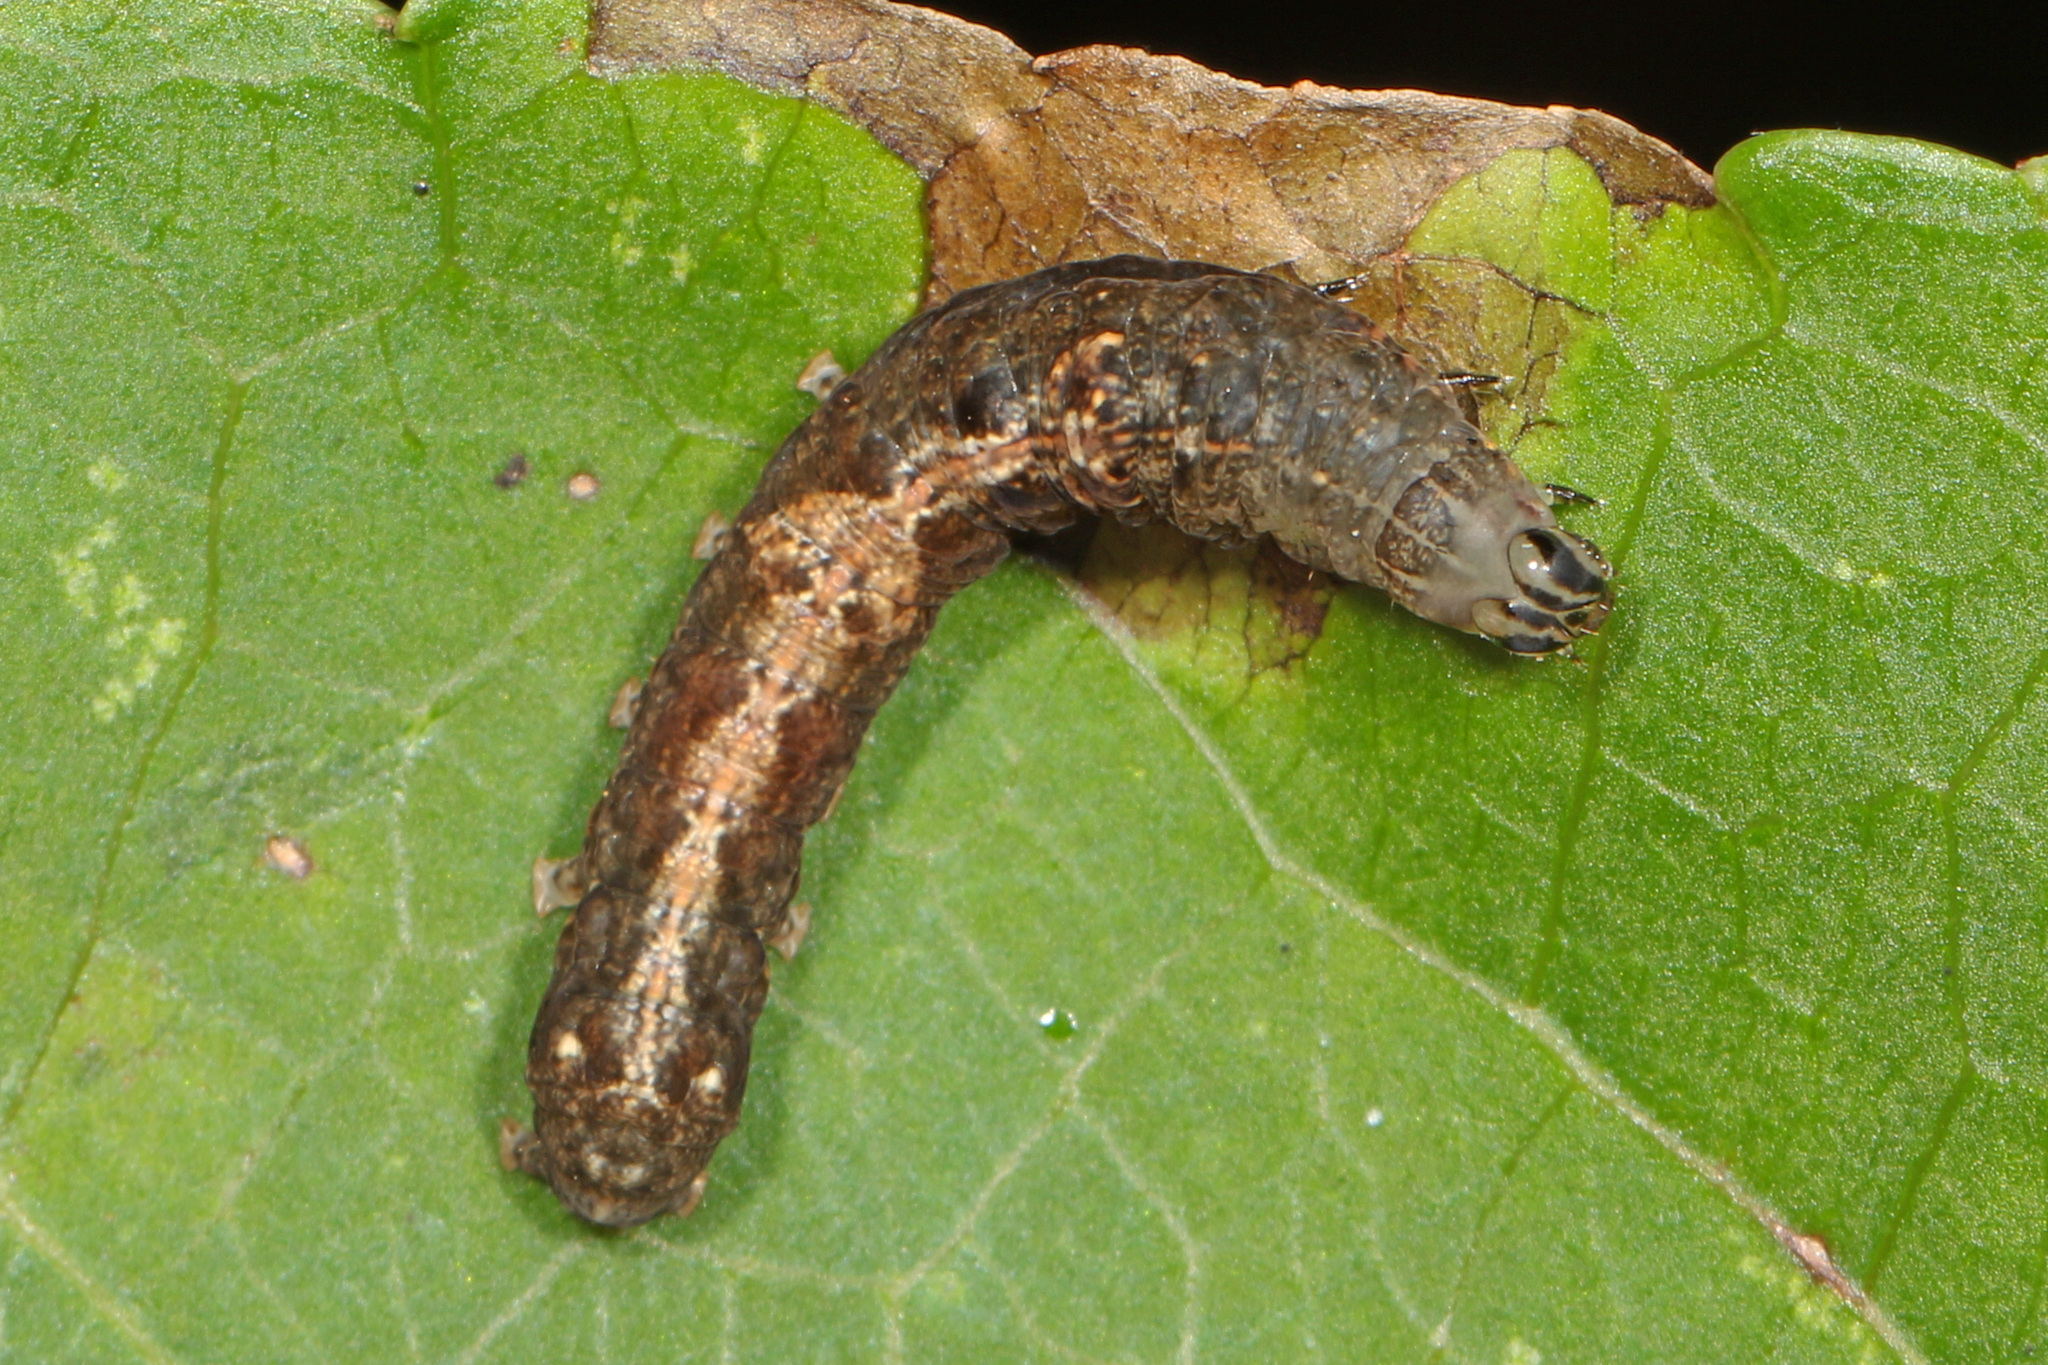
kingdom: Animalia
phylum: Arthropoda
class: Insecta
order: Lepidoptera
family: Noctuidae
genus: Elaphria
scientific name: Elaphria versicolor
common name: Fir harlequin
